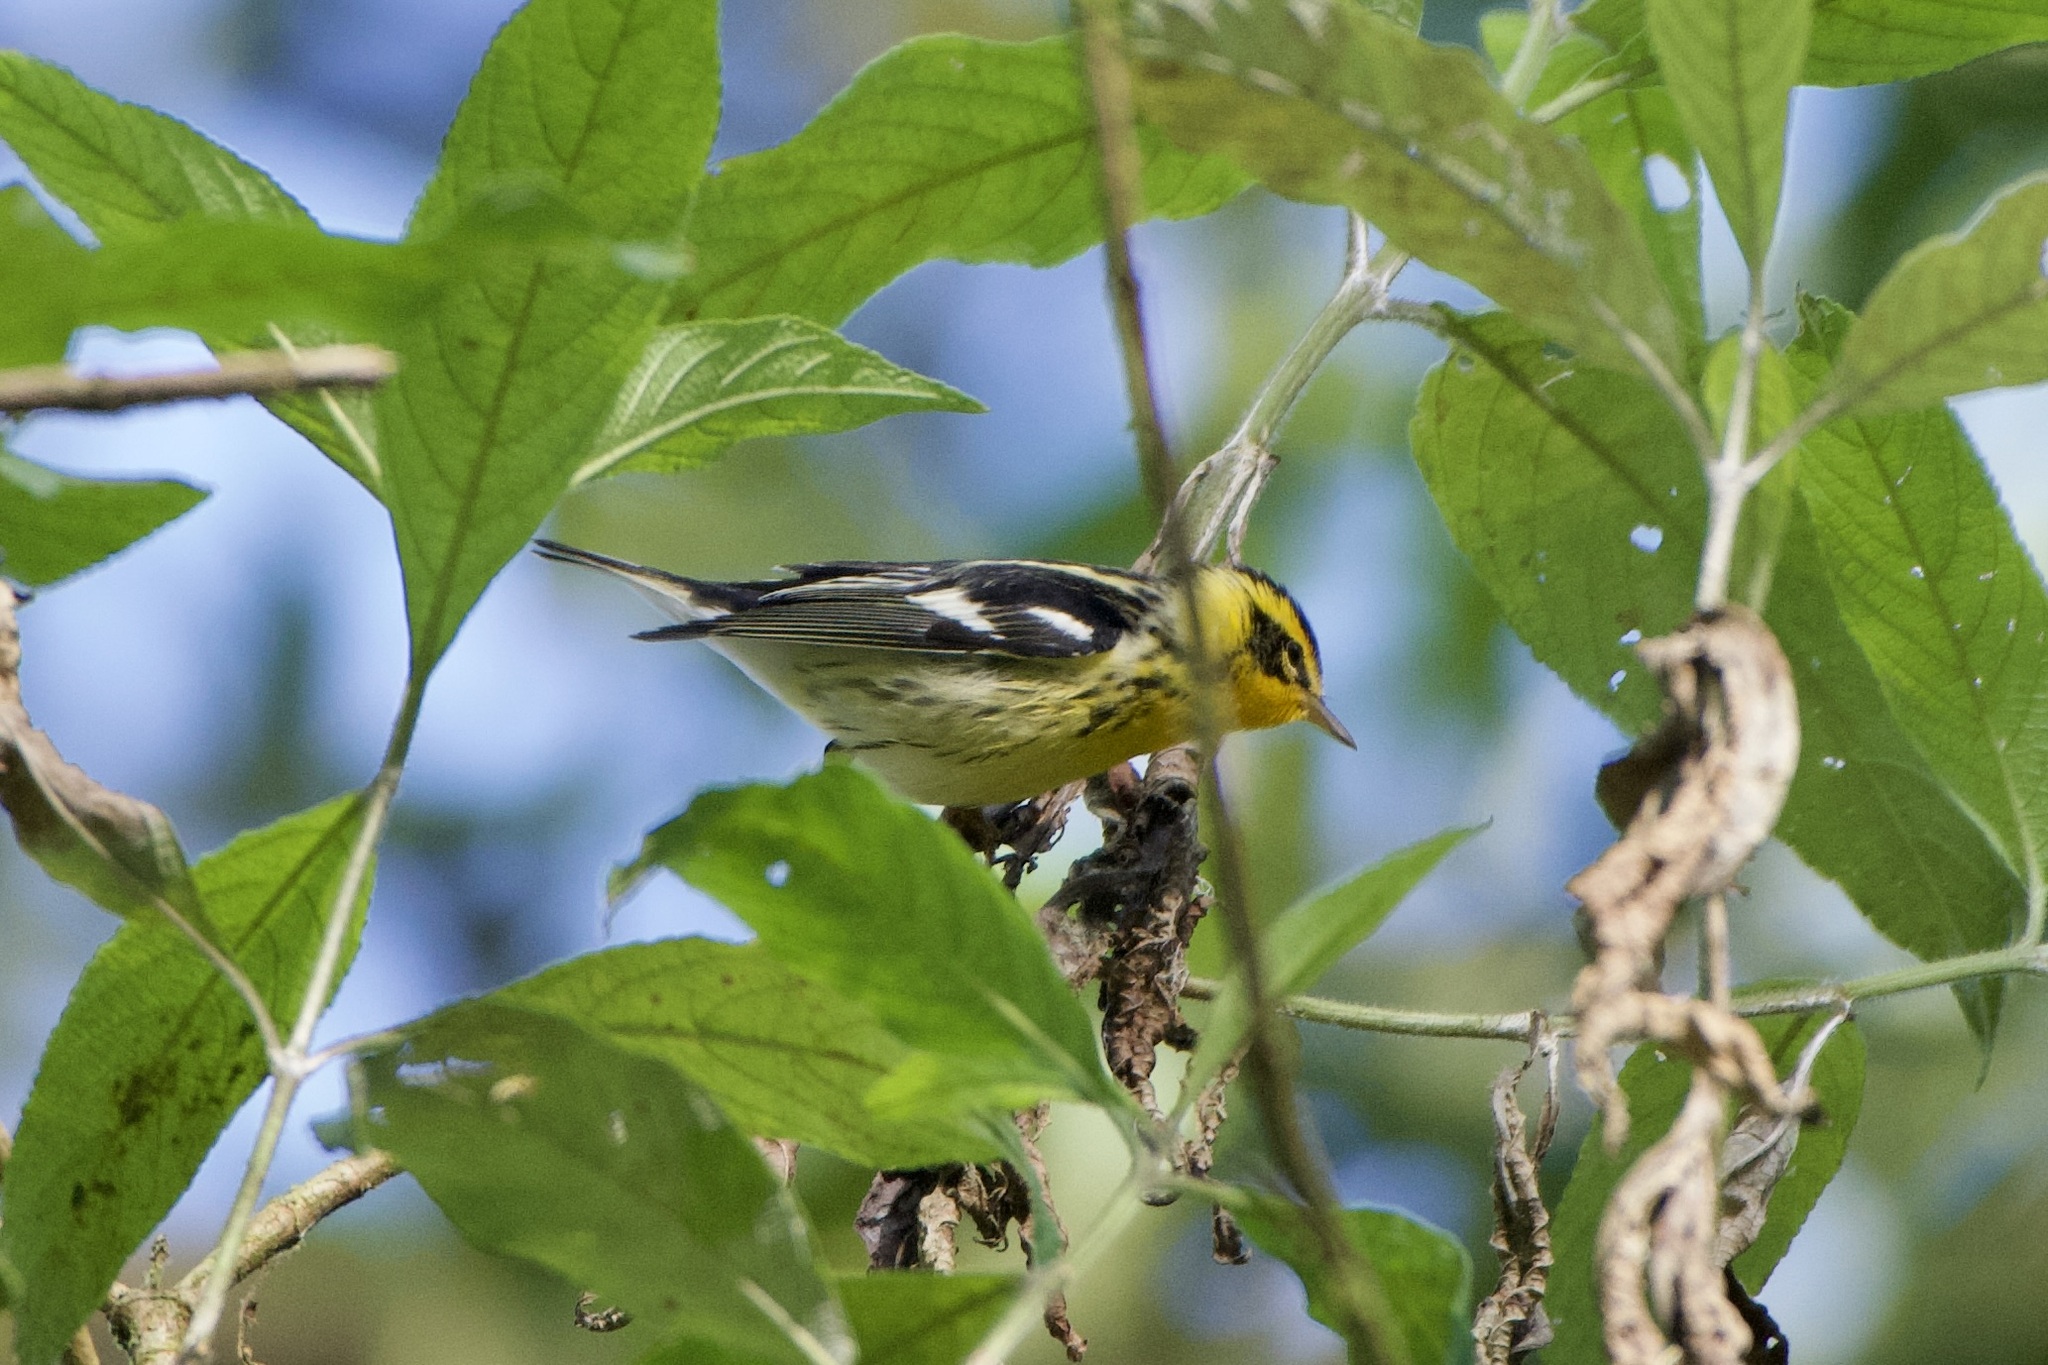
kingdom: Animalia
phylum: Chordata
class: Aves
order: Passeriformes
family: Parulidae
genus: Setophaga
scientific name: Setophaga fusca
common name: Blackburnian warbler
